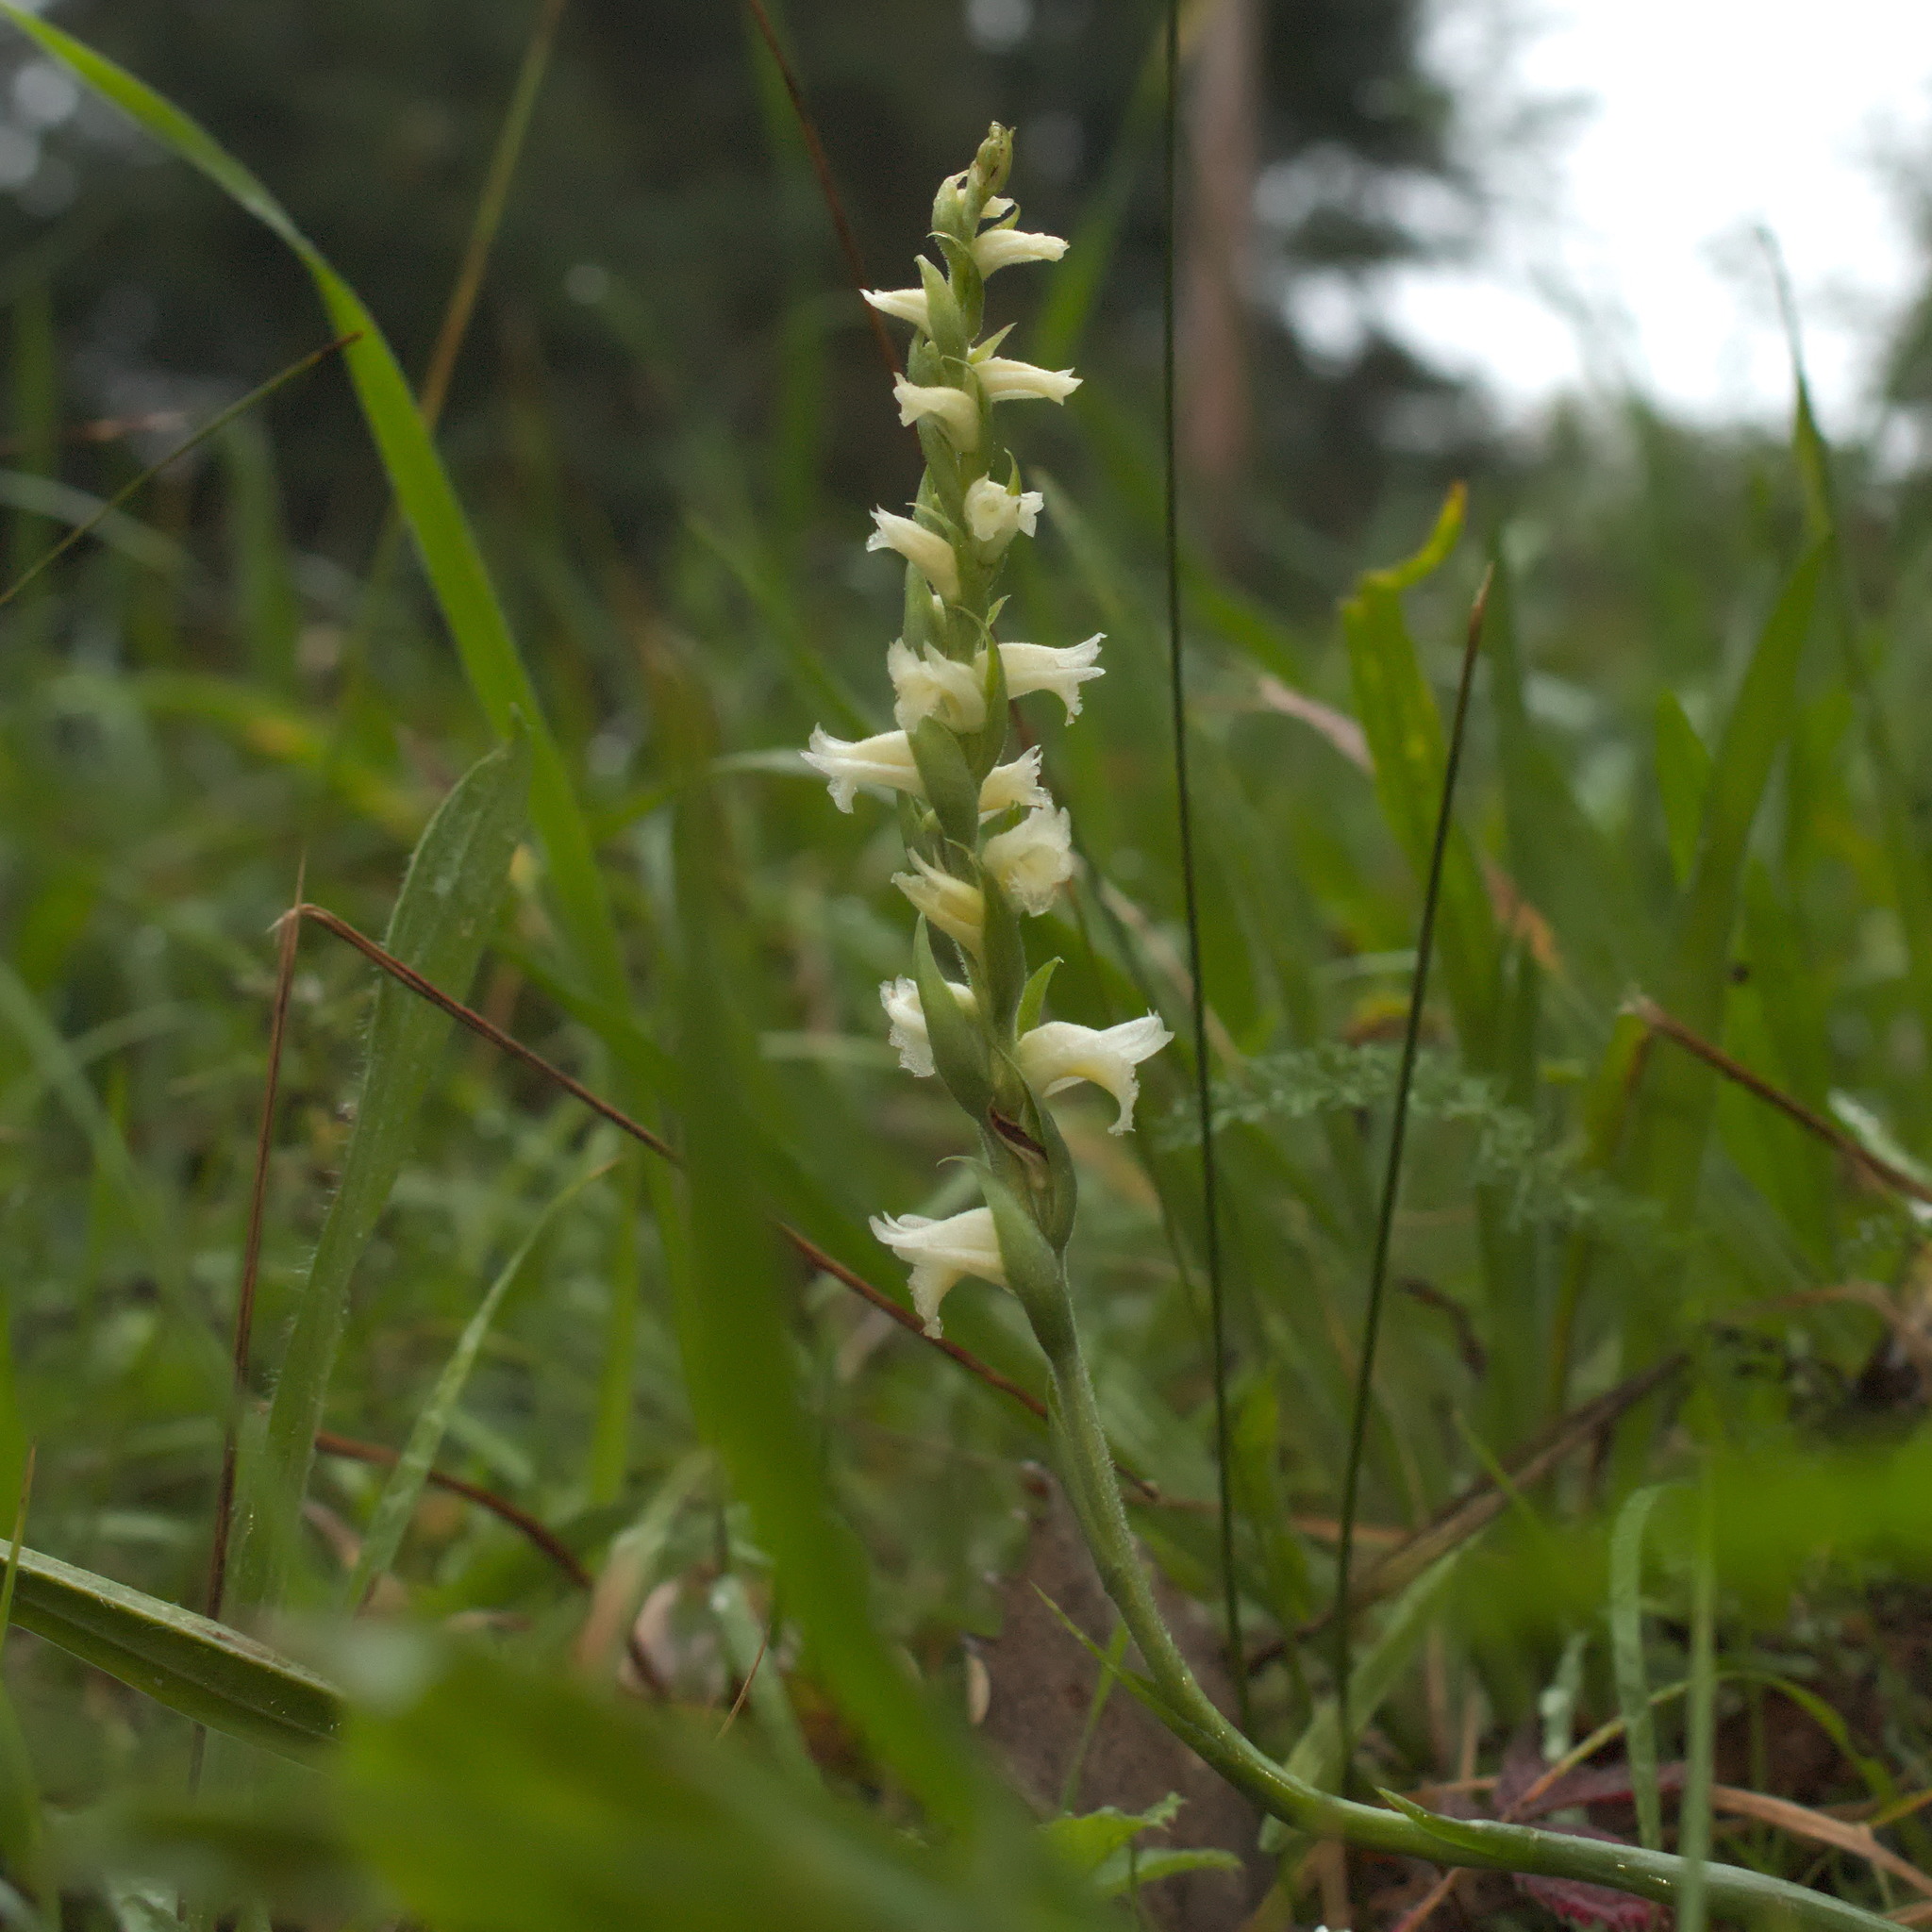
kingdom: Plantae
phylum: Tracheophyta
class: Liliopsida
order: Asparagales
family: Orchidaceae
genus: Spiranthes
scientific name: Spiranthes ochroleuca
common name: Yellow ladies'-tresses
